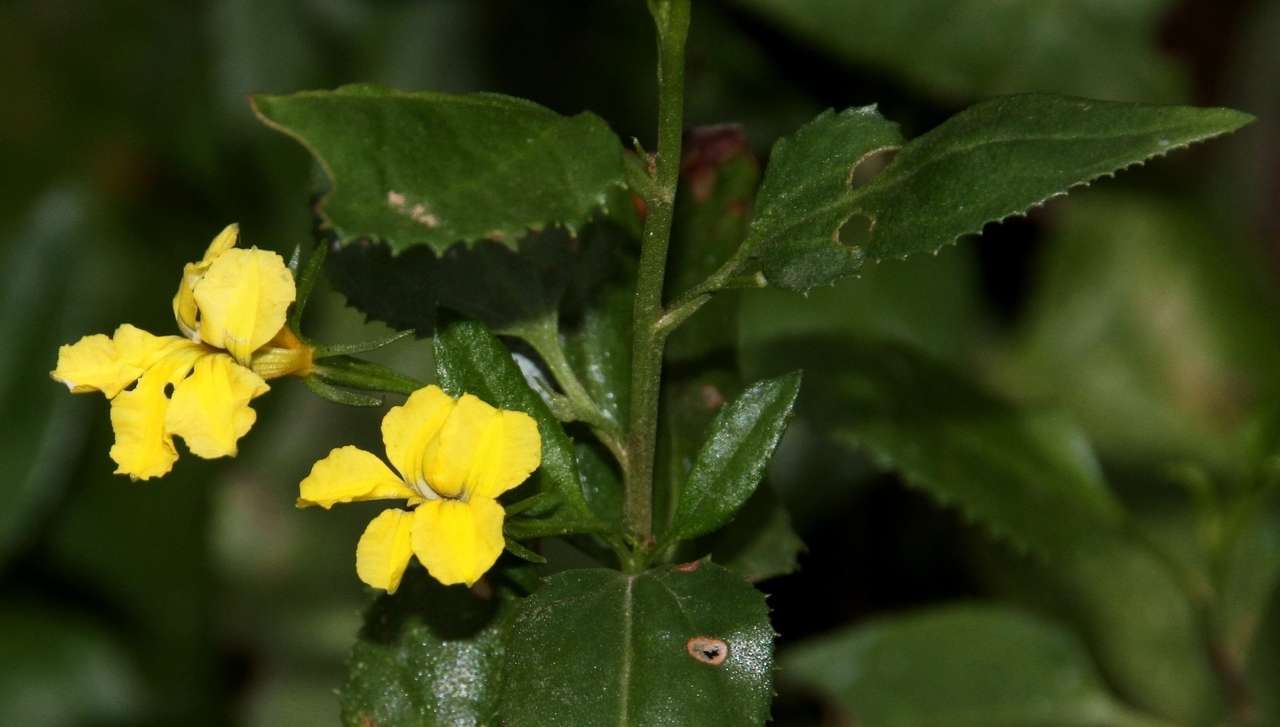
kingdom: Plantae
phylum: Tracheophyta
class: Magnoliopsida
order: Asterales
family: Goodeniaceae
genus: Goodenia
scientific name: Goodenia ovata
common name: Hop goodenia
